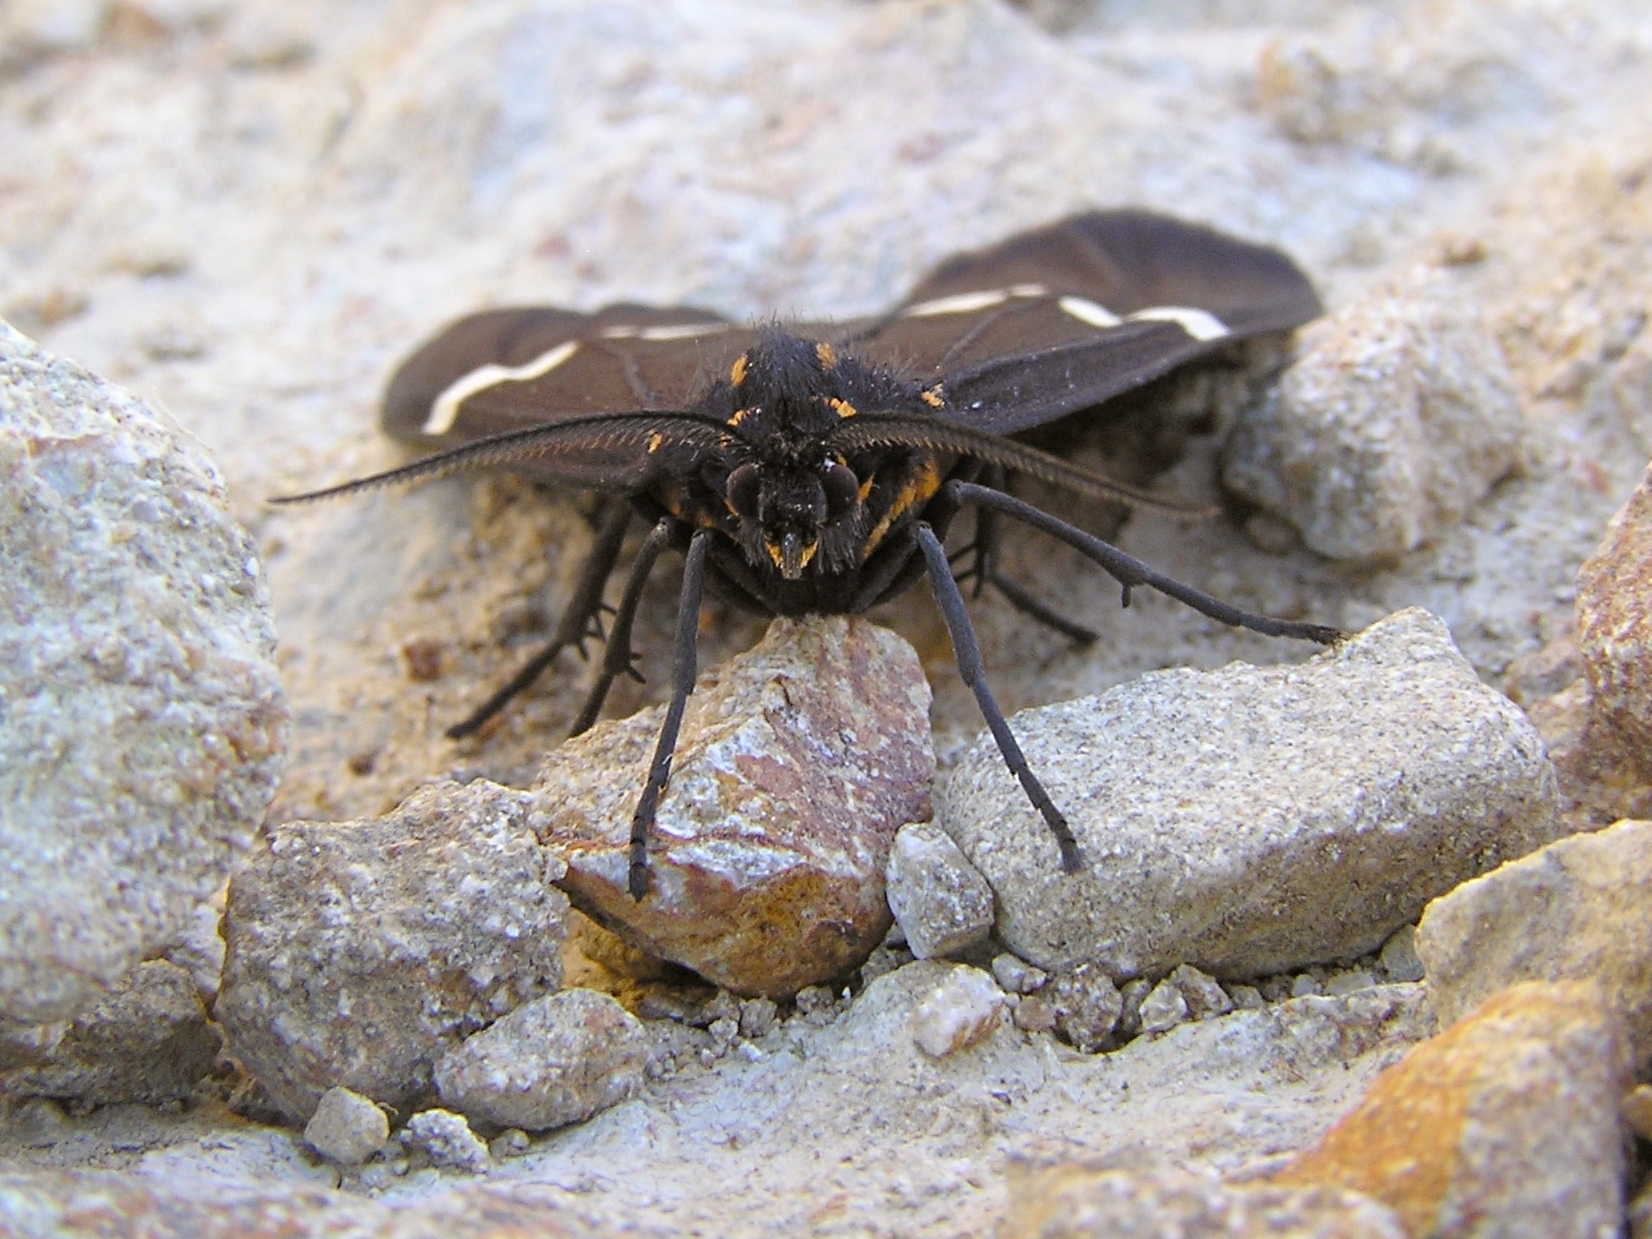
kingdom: Animalia
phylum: Arthropoda
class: Insecta
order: Lepidoptera
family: Erebidae
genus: Nyctemera
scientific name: Nyctemera annulatum
